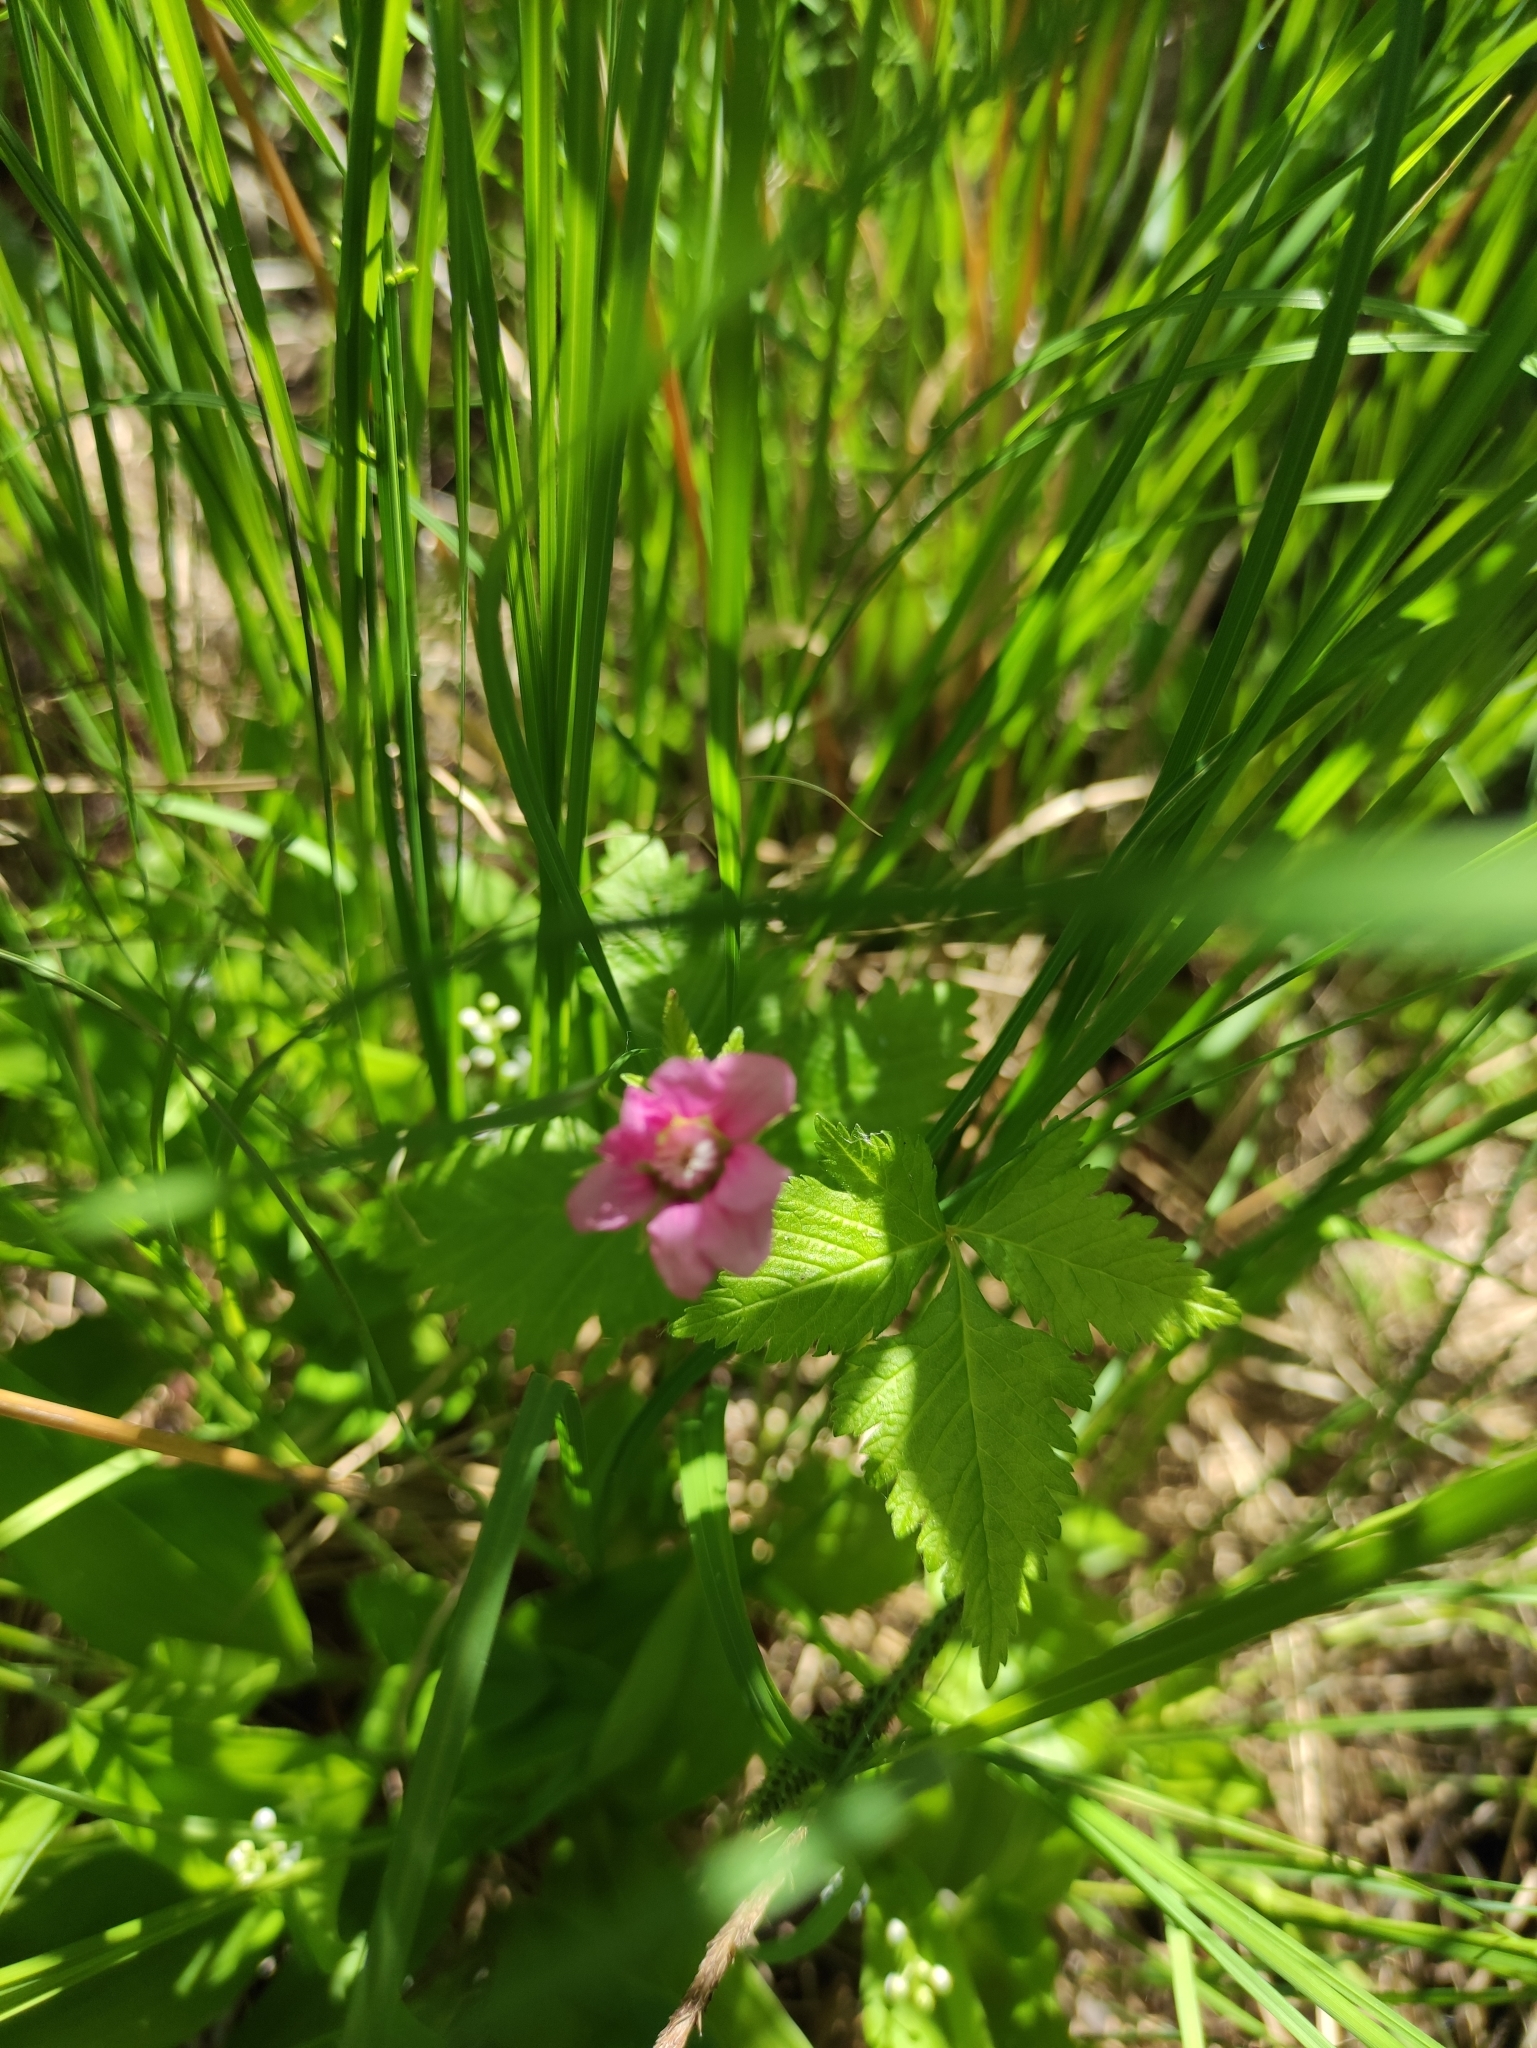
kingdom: Plantae
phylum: Tracheophyta
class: Magnoliopsida
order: Rosales
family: Rosaceae
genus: Rubus
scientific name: Rubus arcticus
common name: Arctic bramble
